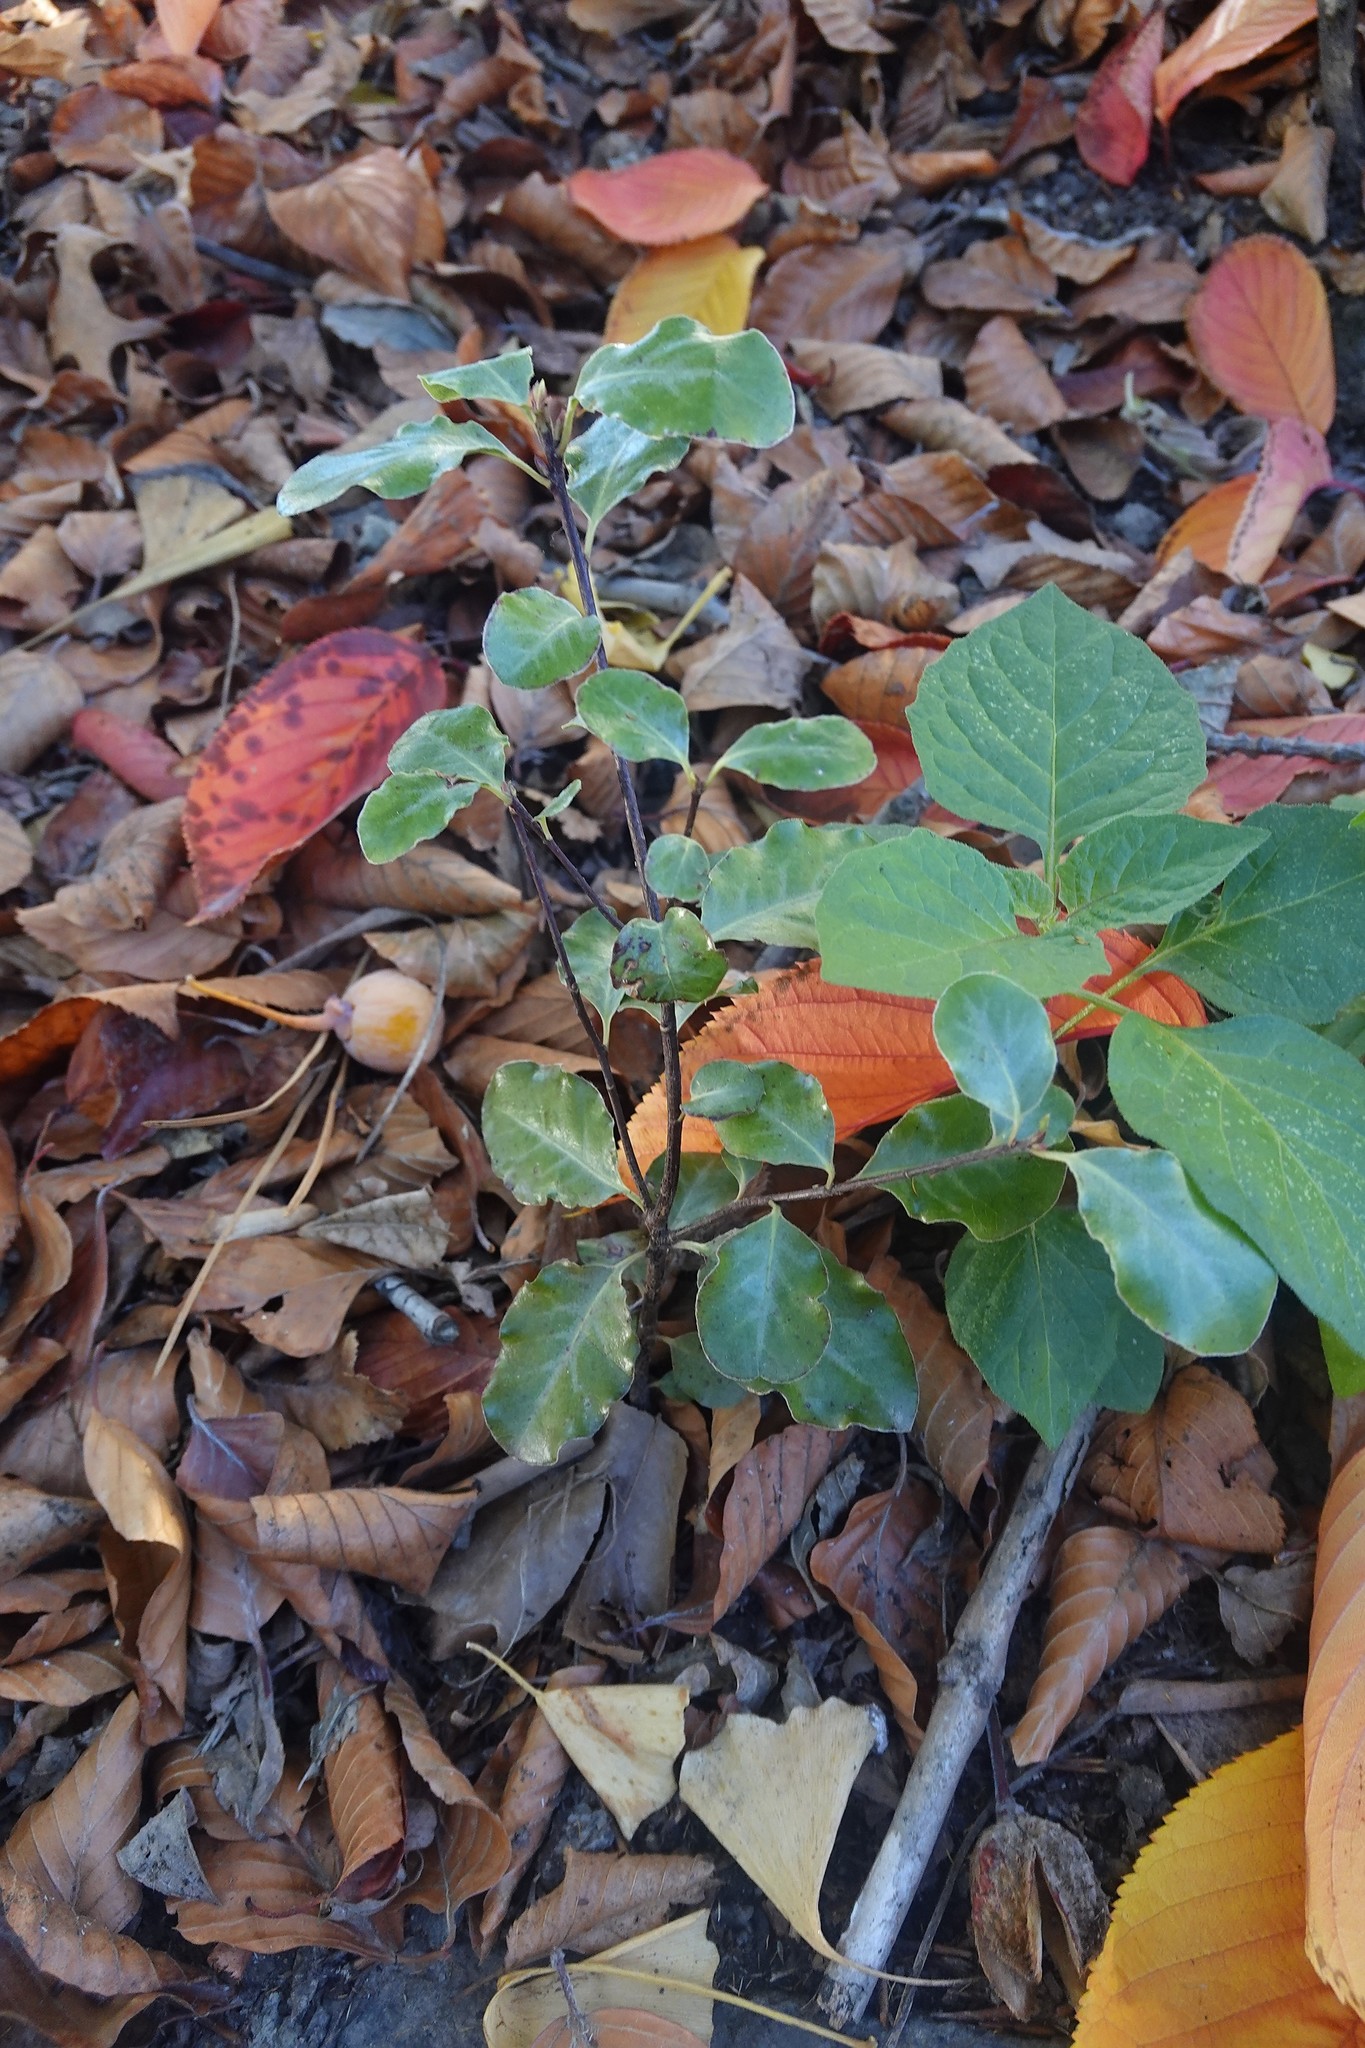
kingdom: Plantae
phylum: Tracheophyta
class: Magnoliopsida
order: Apiales
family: Pittosporaceae
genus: Pittosporum
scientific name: Pittosporum tenuifolium
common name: Kohuhu
